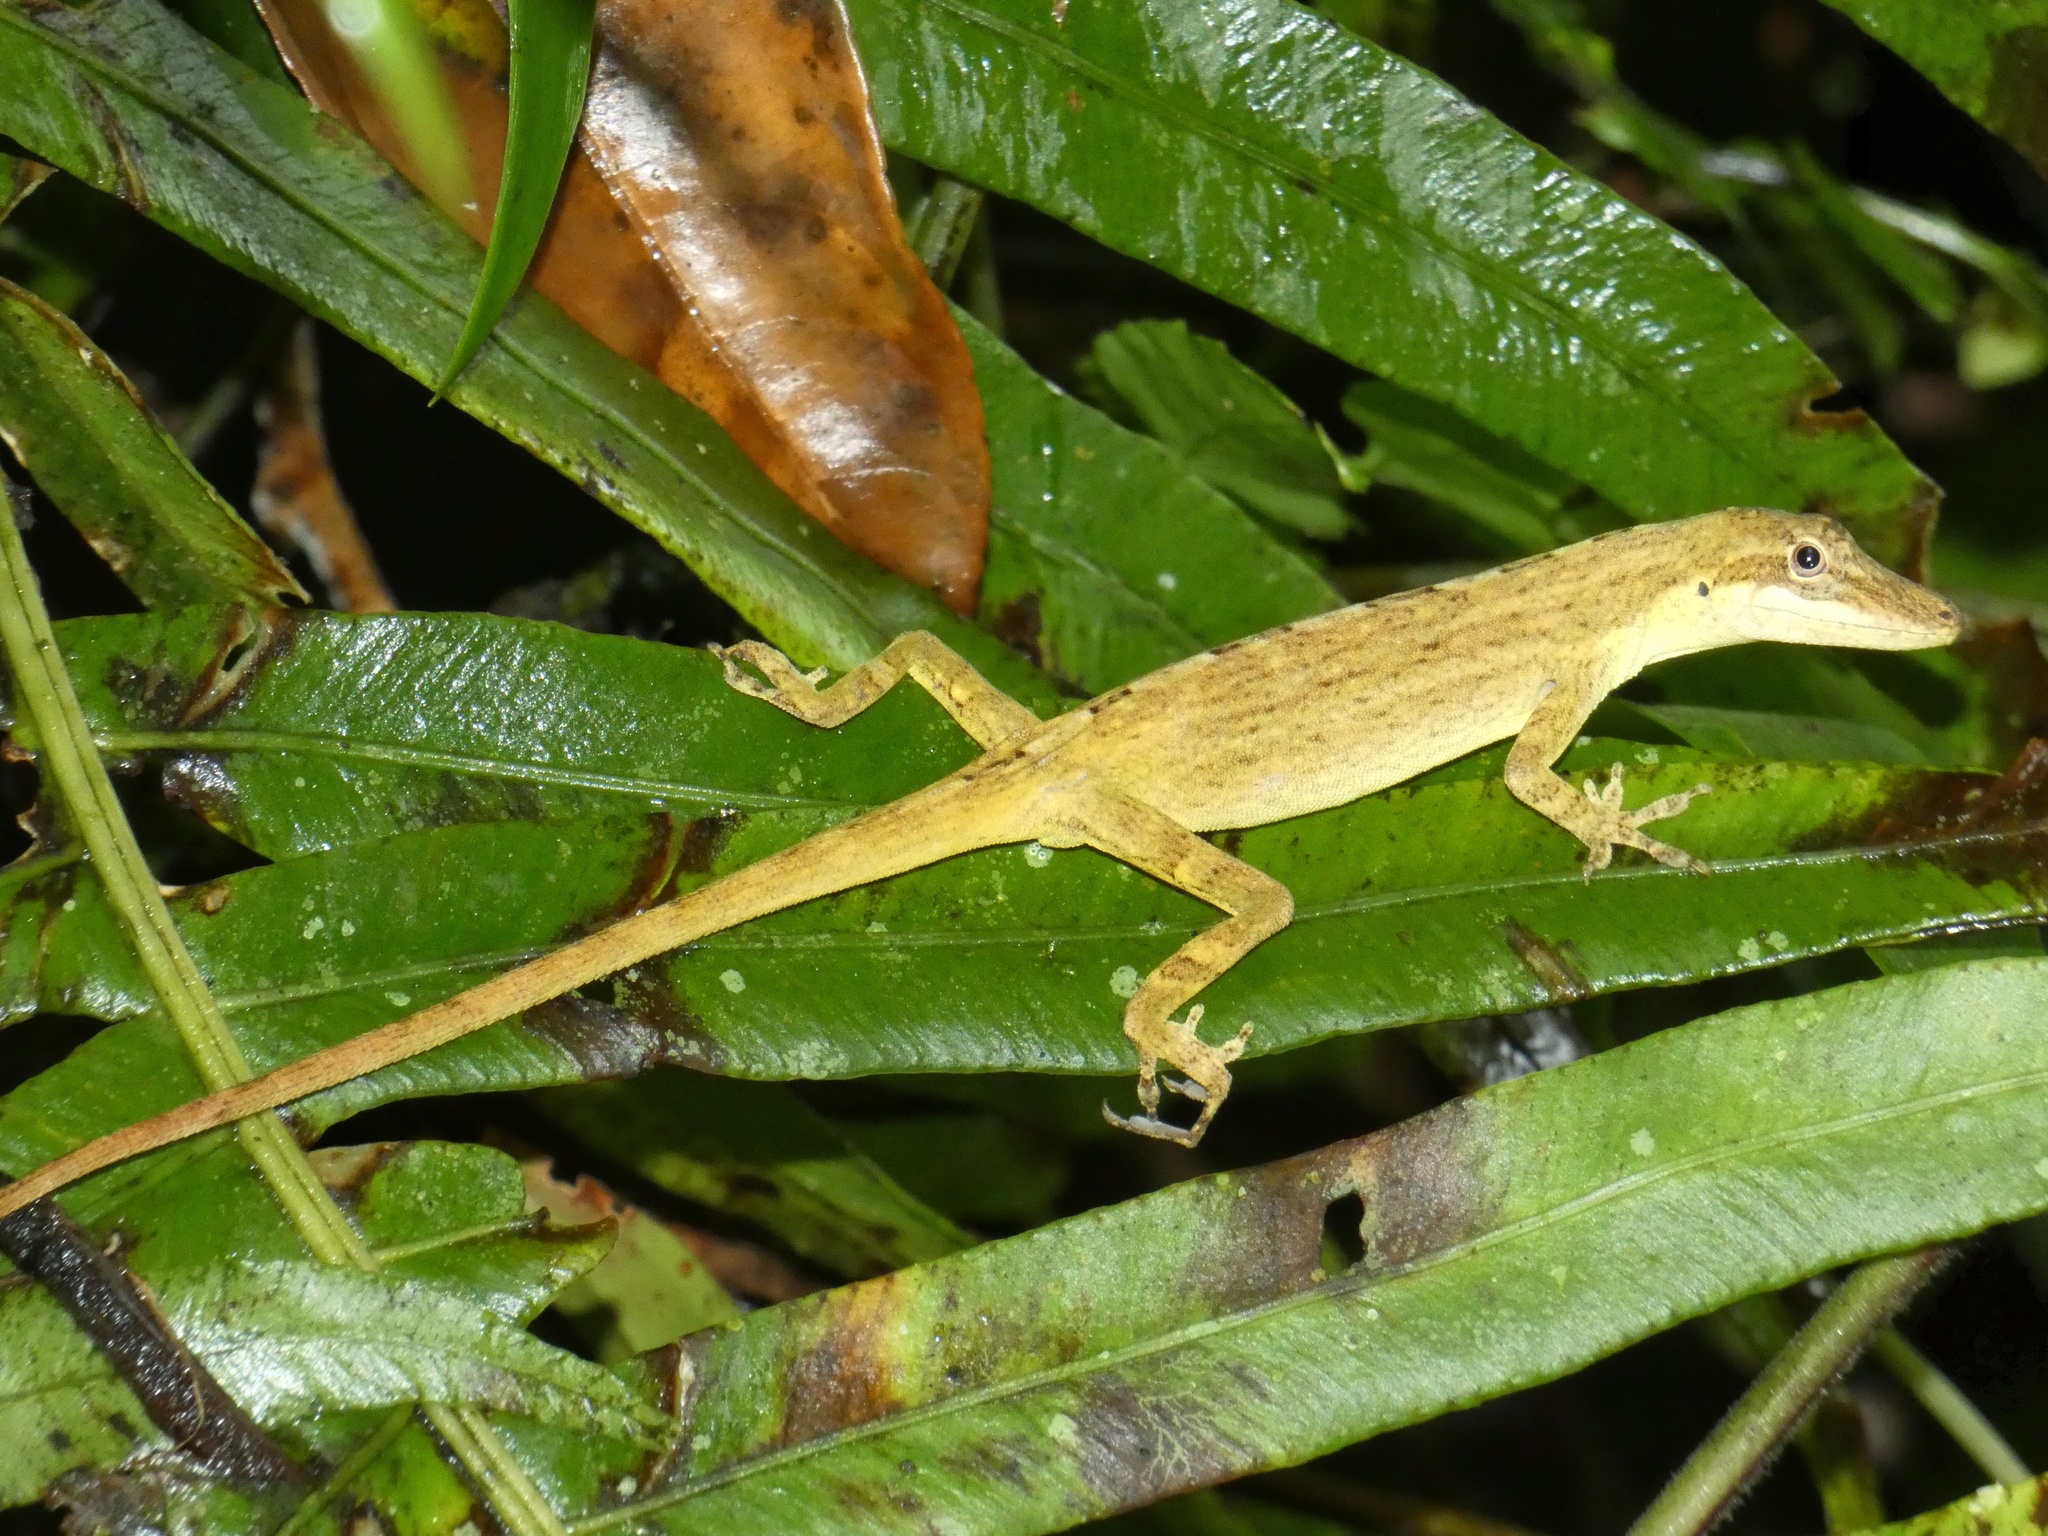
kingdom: Animalia
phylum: Chordata
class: Squamata
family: Dactyloidae
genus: Anolis
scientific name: Anolis kemptoni
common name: Kempton's anole
